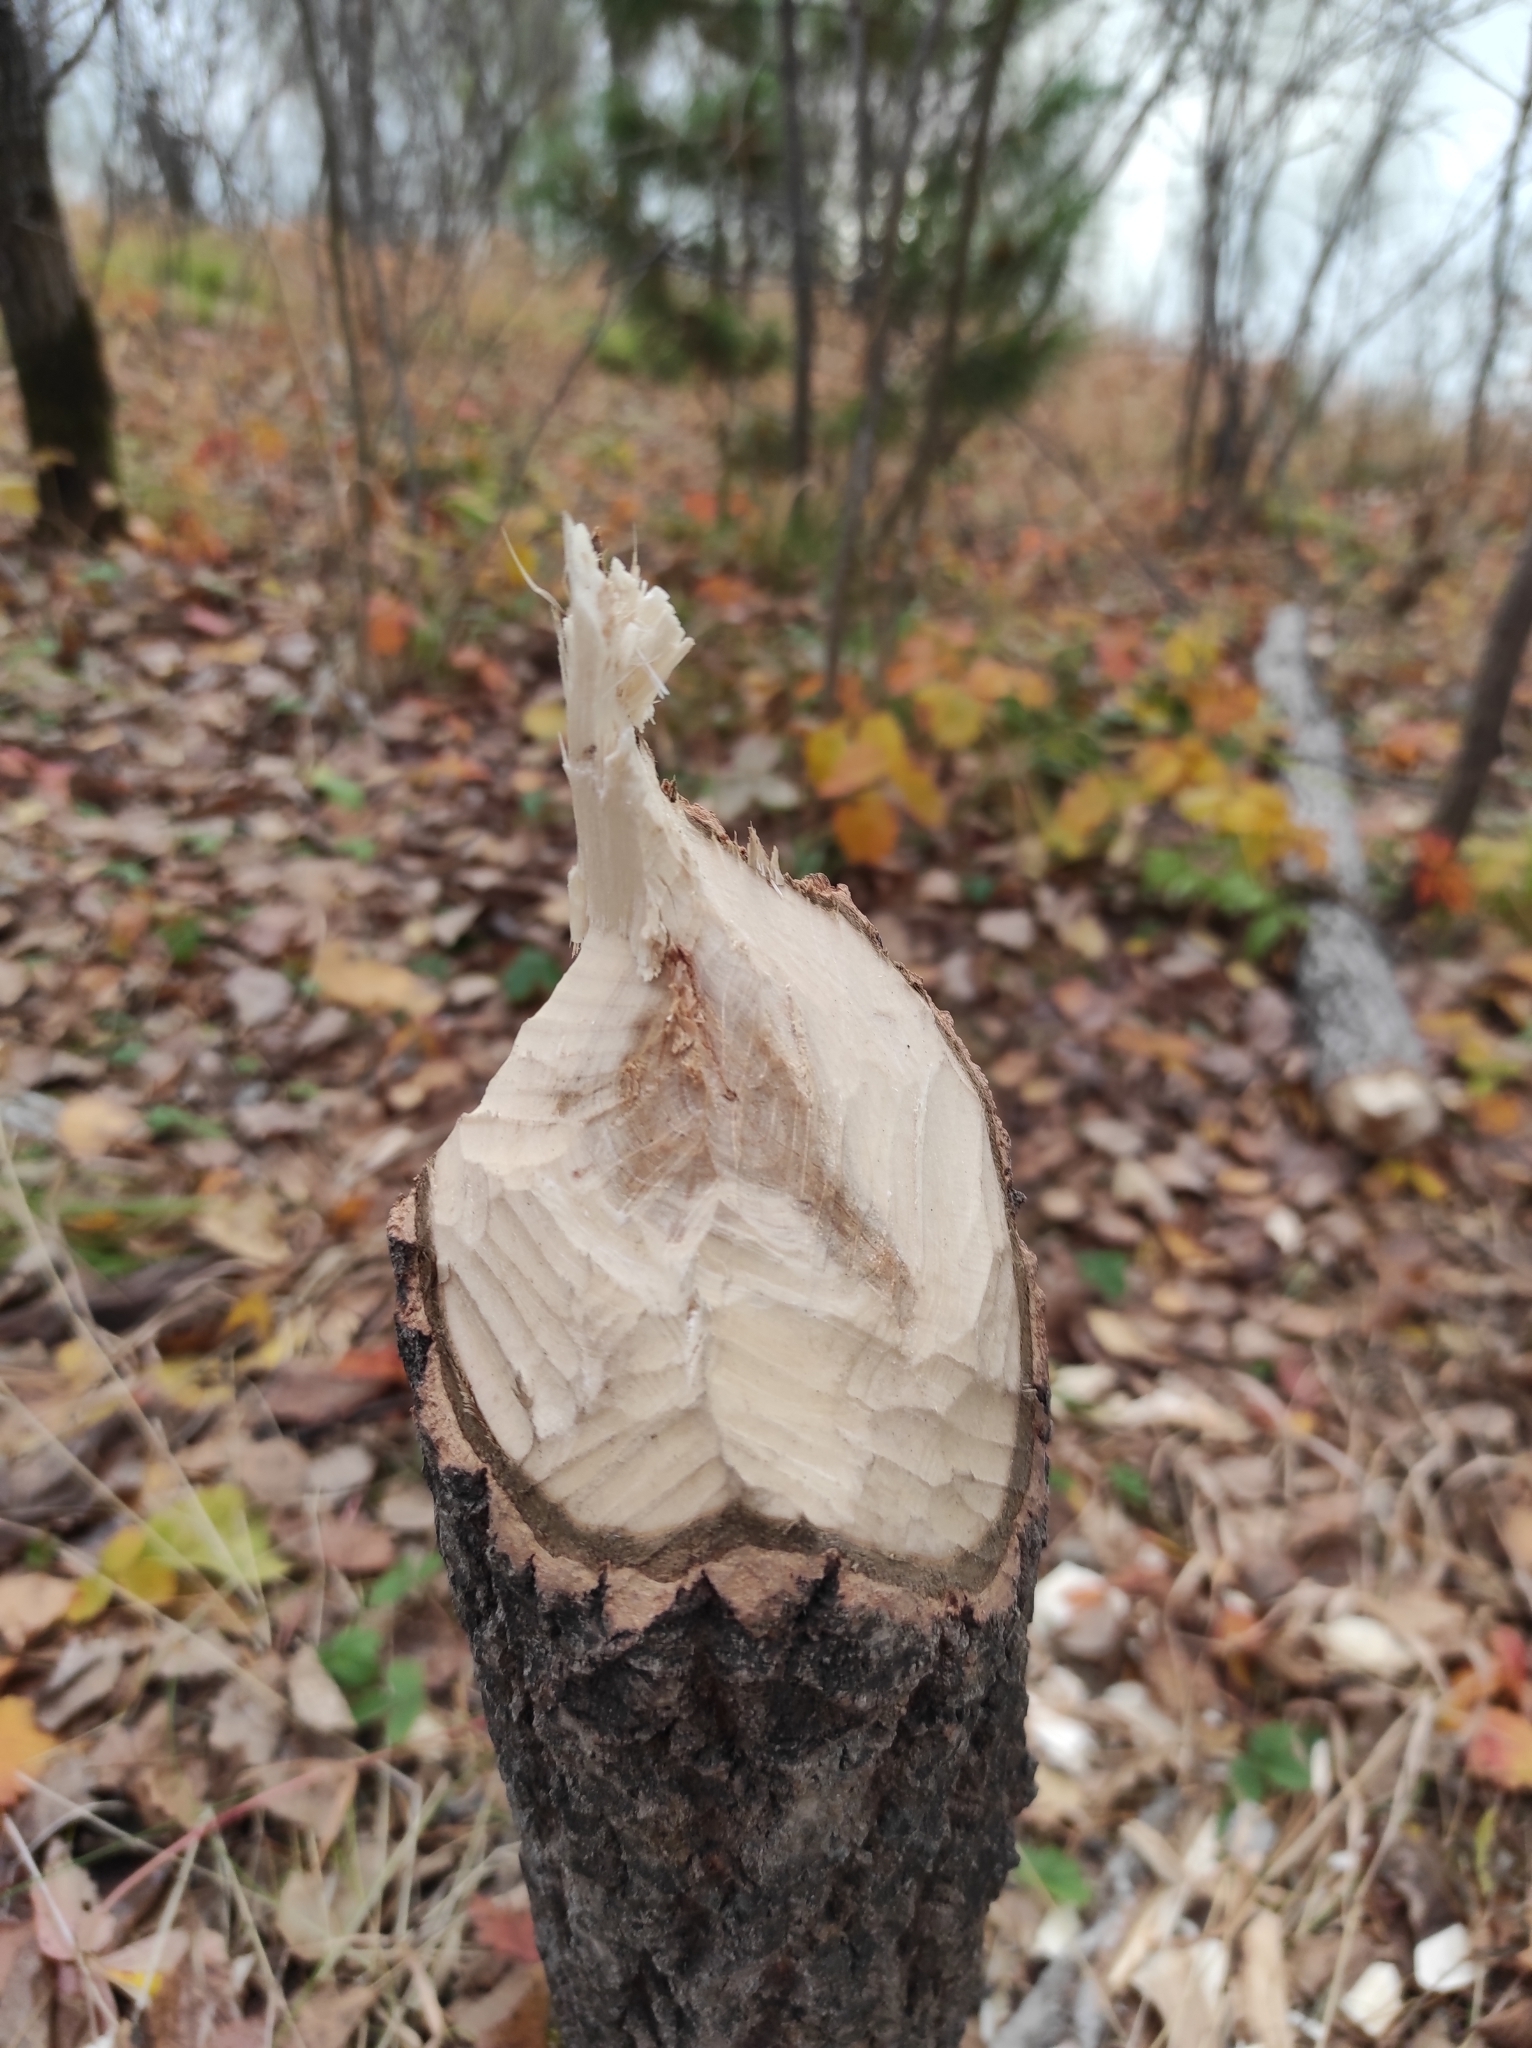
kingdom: Animalia
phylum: Chordata
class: Mammalia
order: Rodentia
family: Castoridae
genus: Castor
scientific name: Castor fiber
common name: Eurasian beaver
